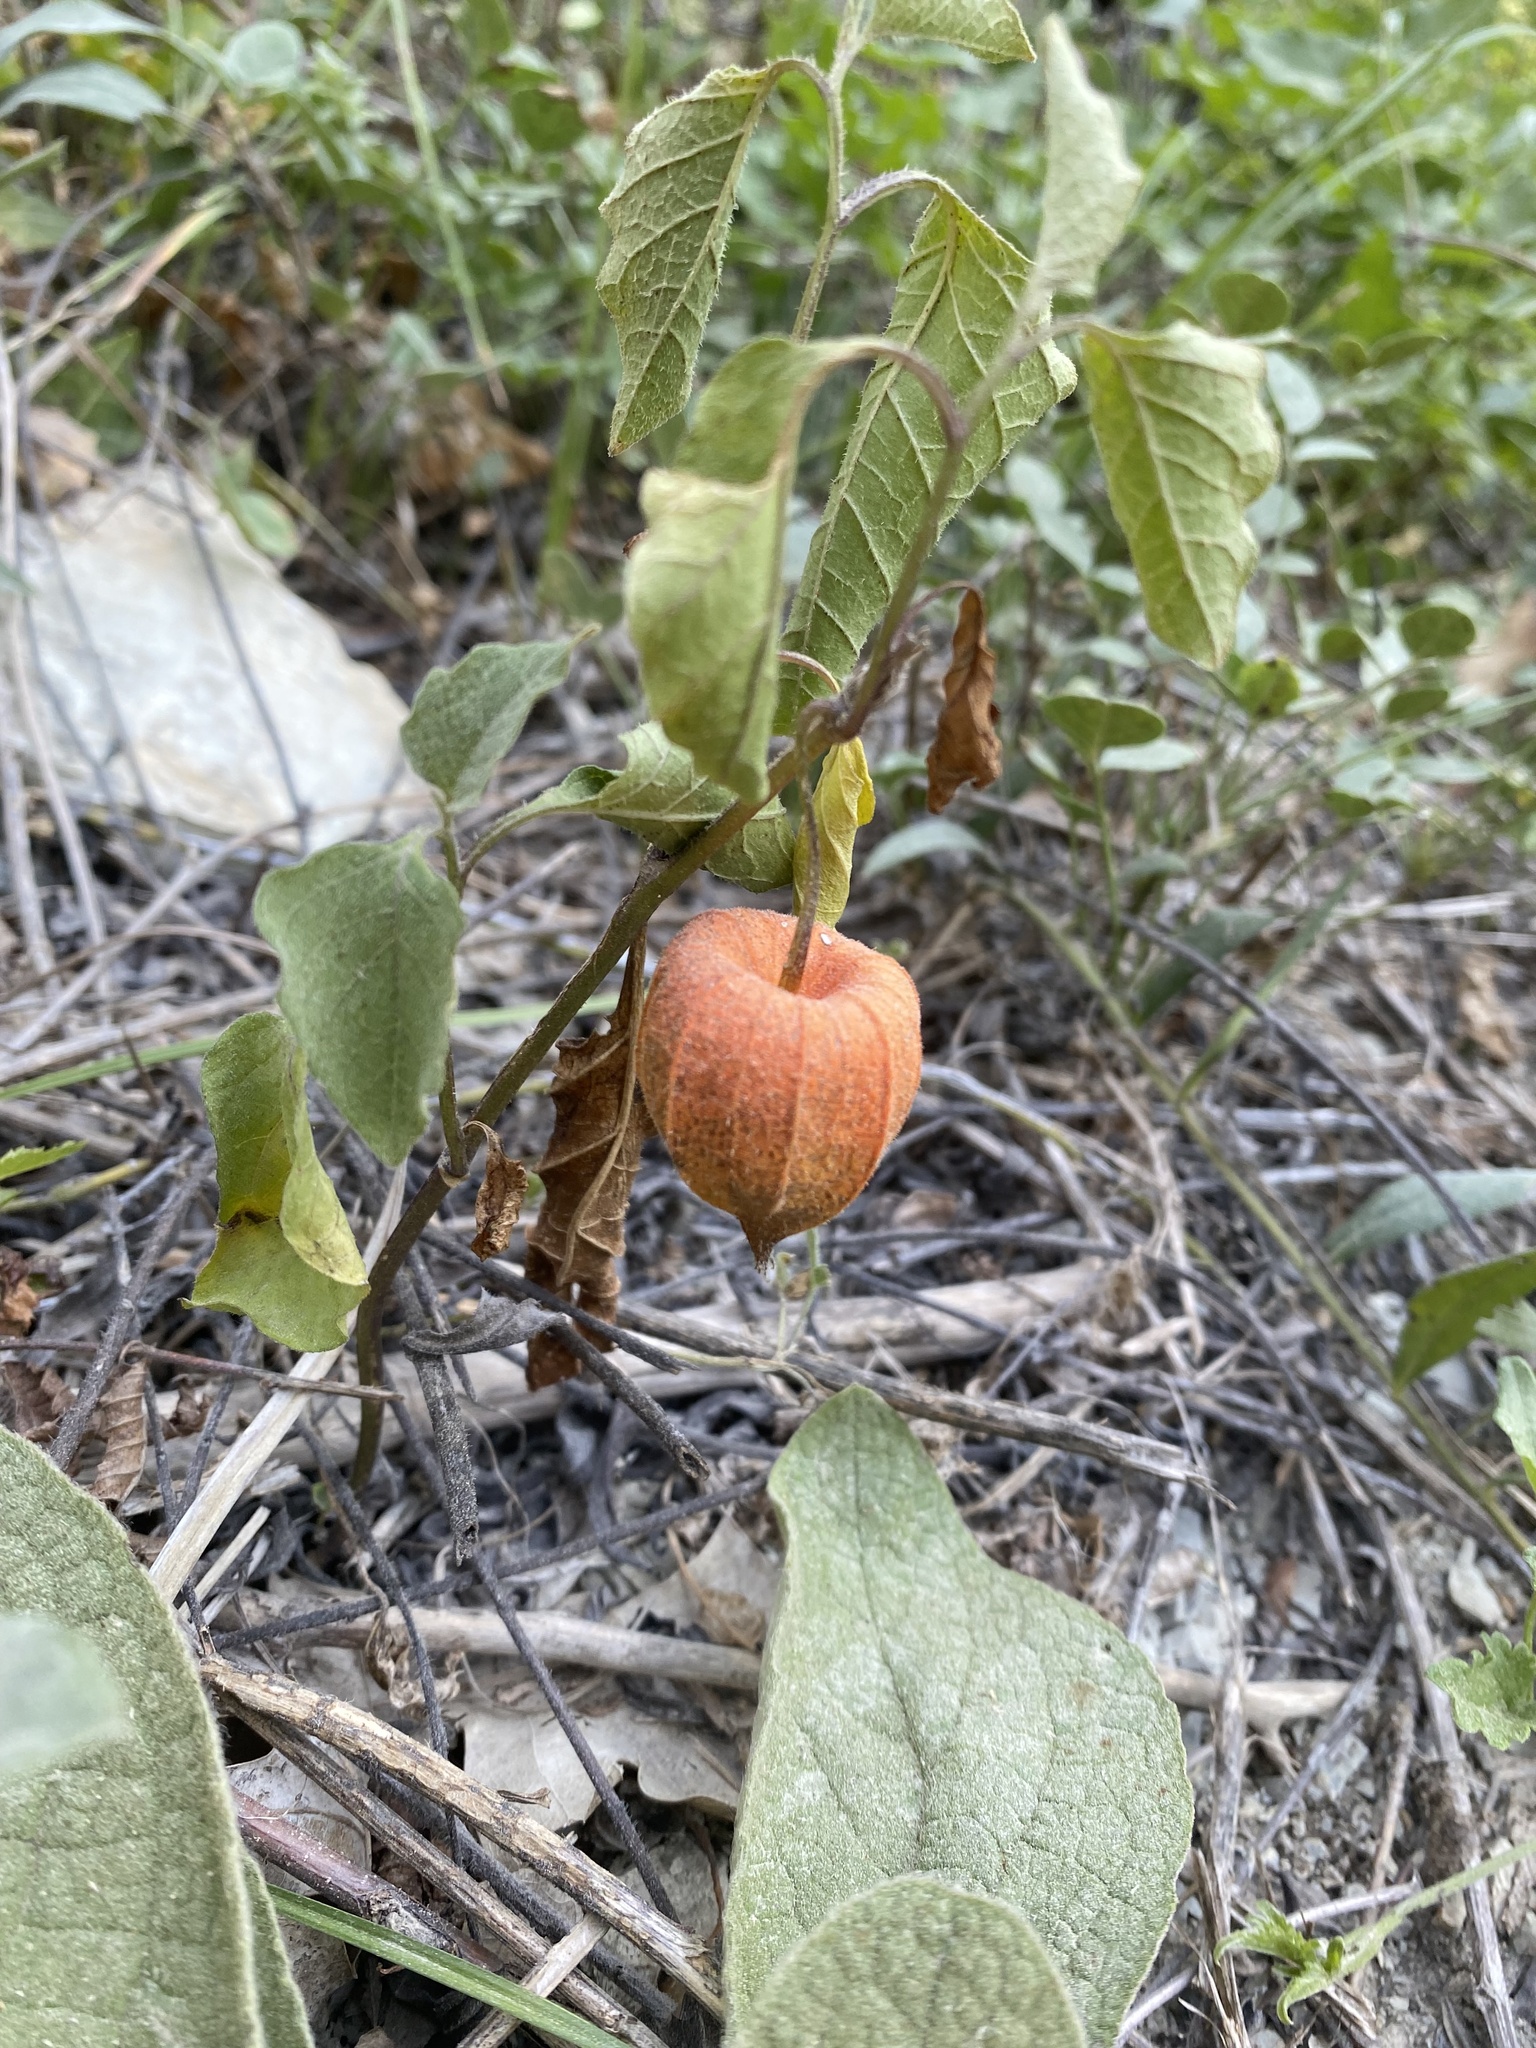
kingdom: Plantae
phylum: Tracheophyta
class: Magnoliopsida
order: Solanales
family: Solanaceae
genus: Alkekengi
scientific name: Alkekengi officinarum
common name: Japanese-lantern
